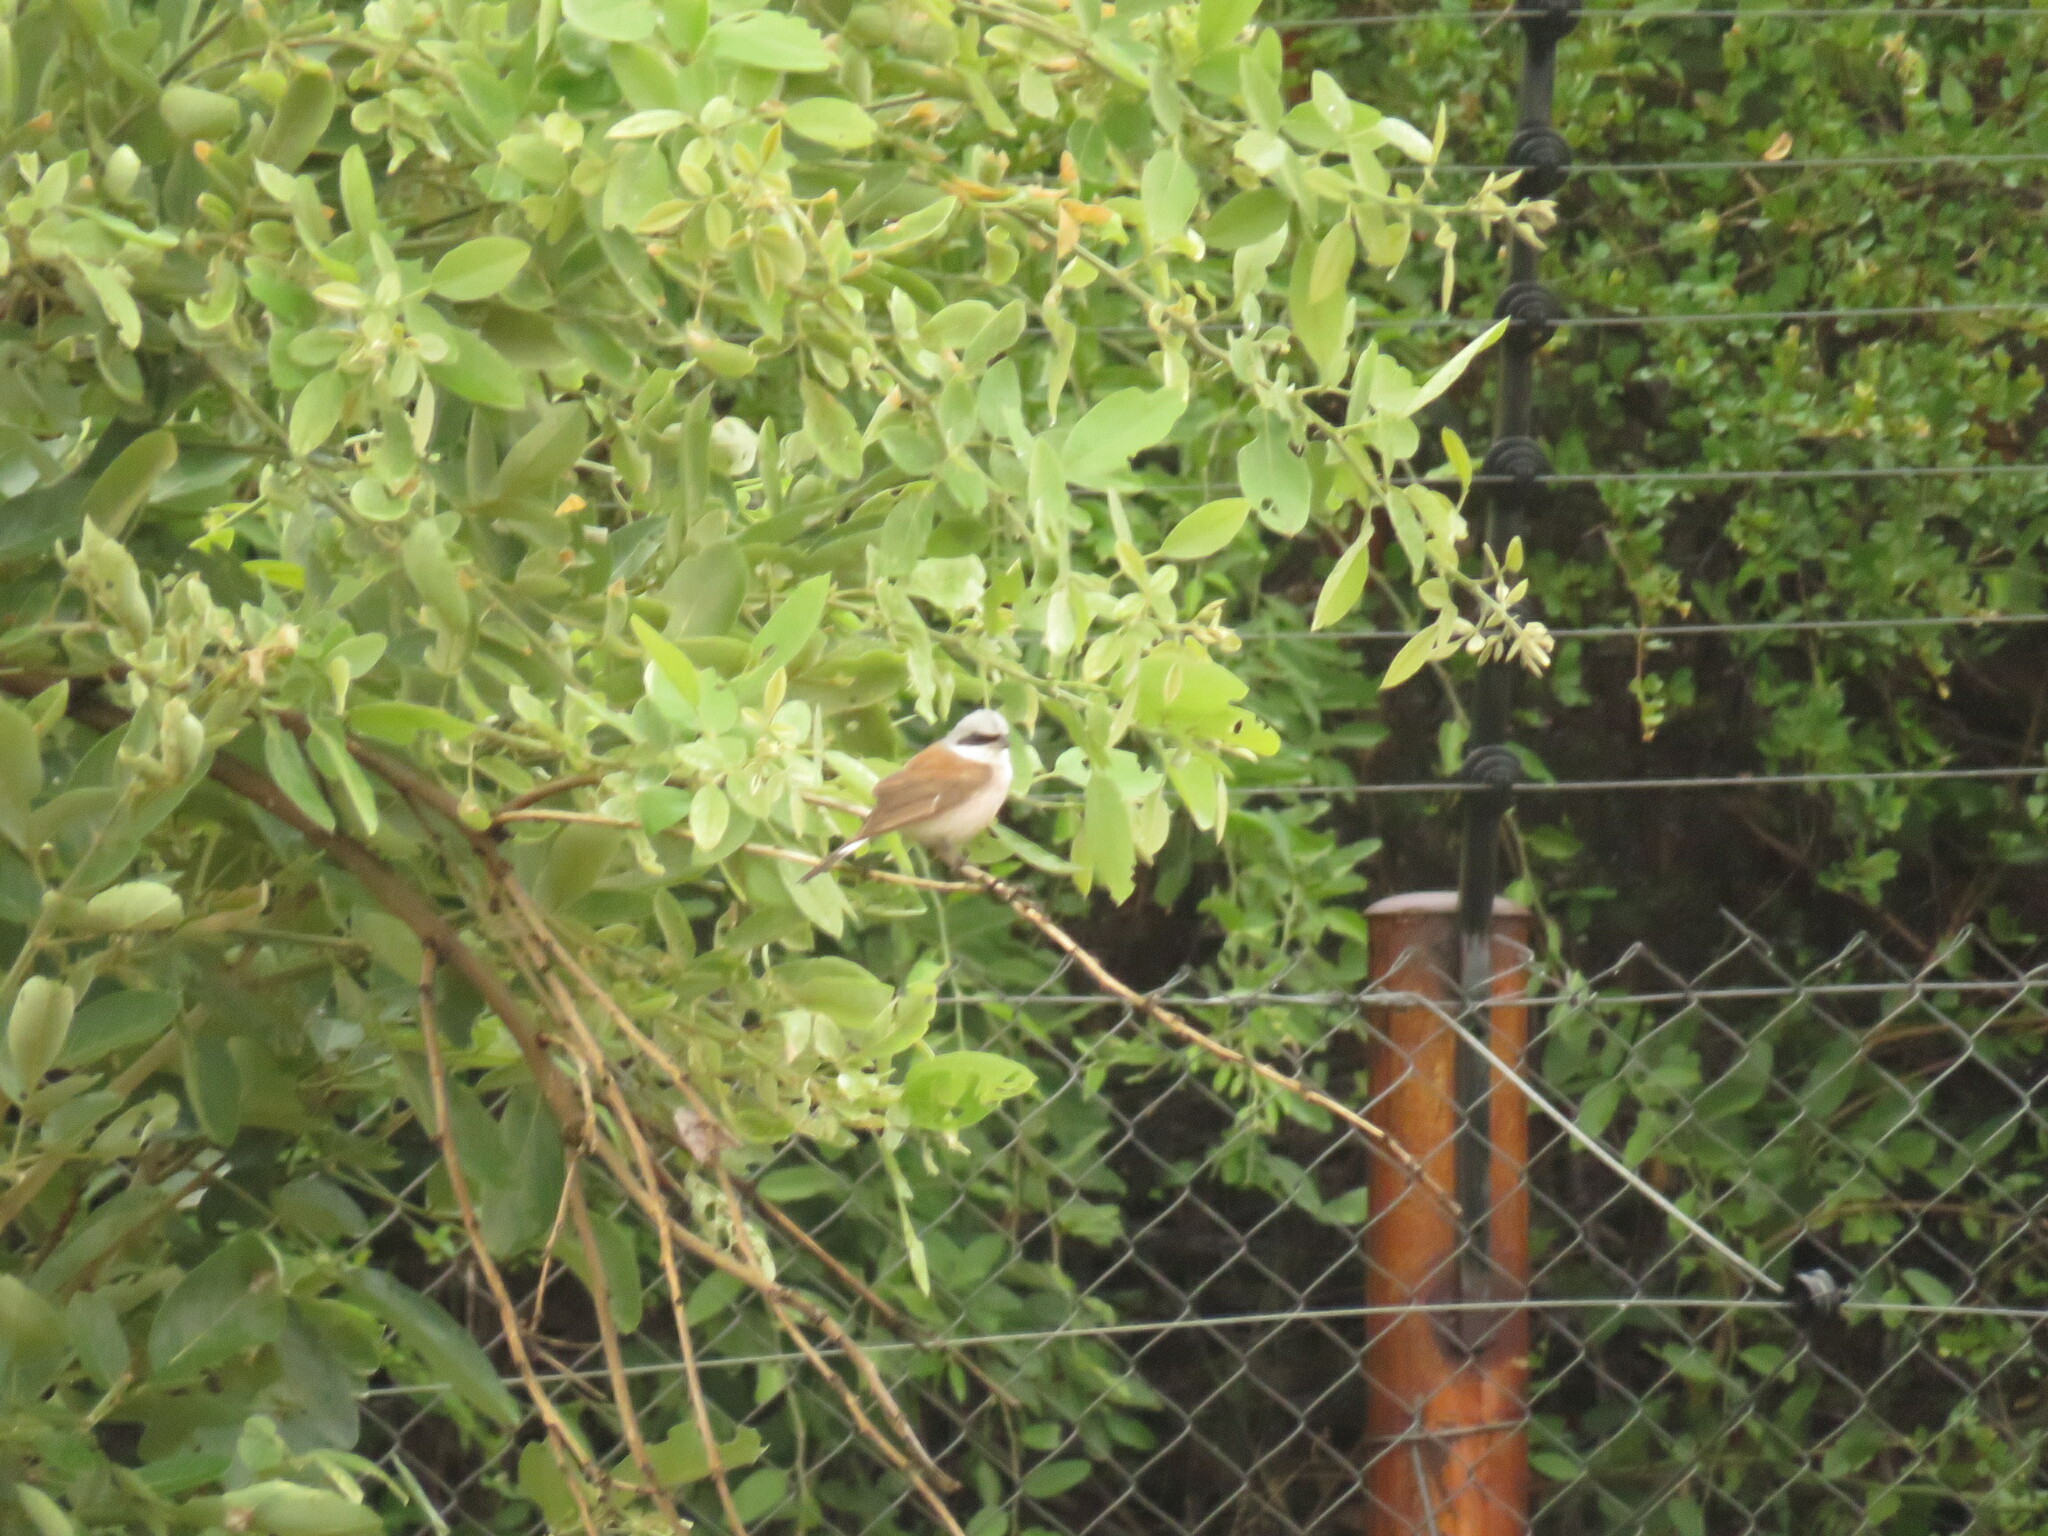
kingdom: Animalia
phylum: Chordata
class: Aves
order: Passeriformes
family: Laniidae
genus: Lanius
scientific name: Lanius collurio
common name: Red-backed shrike
